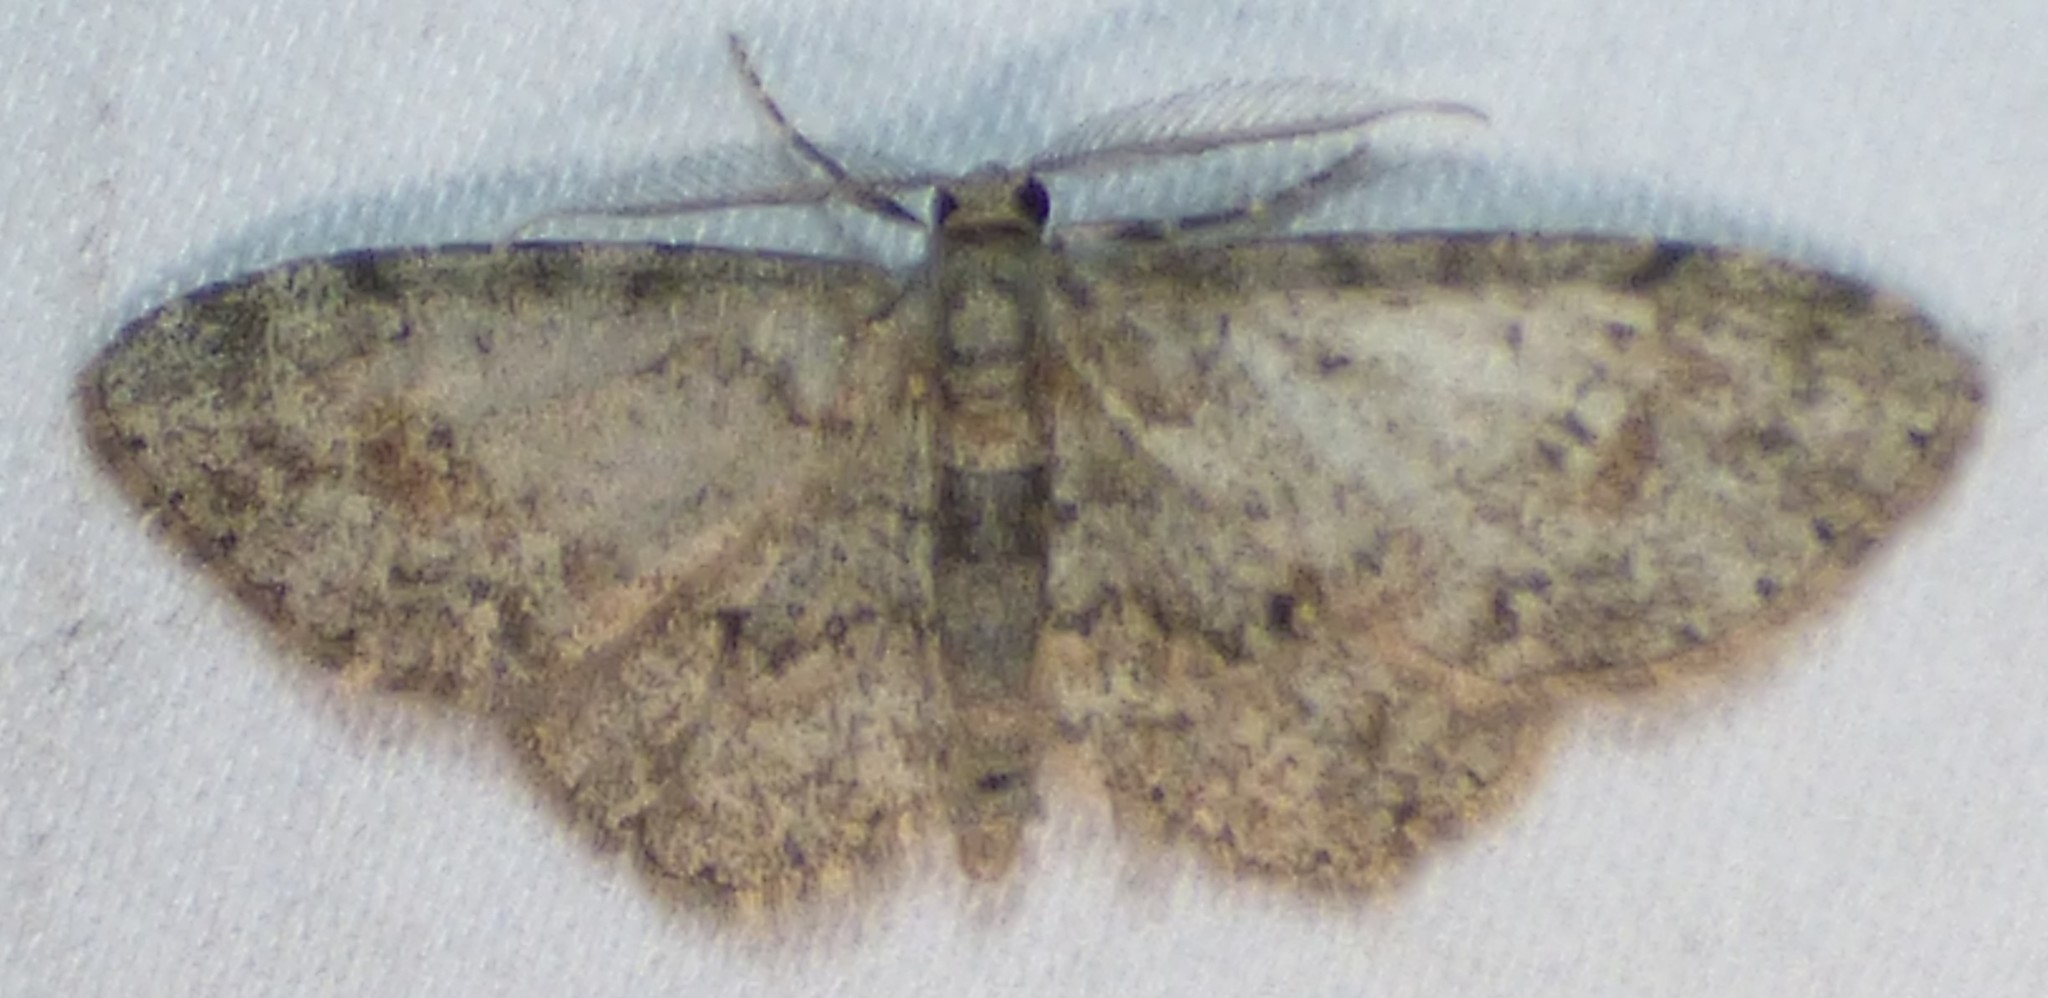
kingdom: Animalia
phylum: Arthropoda
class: Insecta
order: Lepidoptera
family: Geometridae
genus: Glenoides
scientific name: Glenoides texanaria
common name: Texas gray
